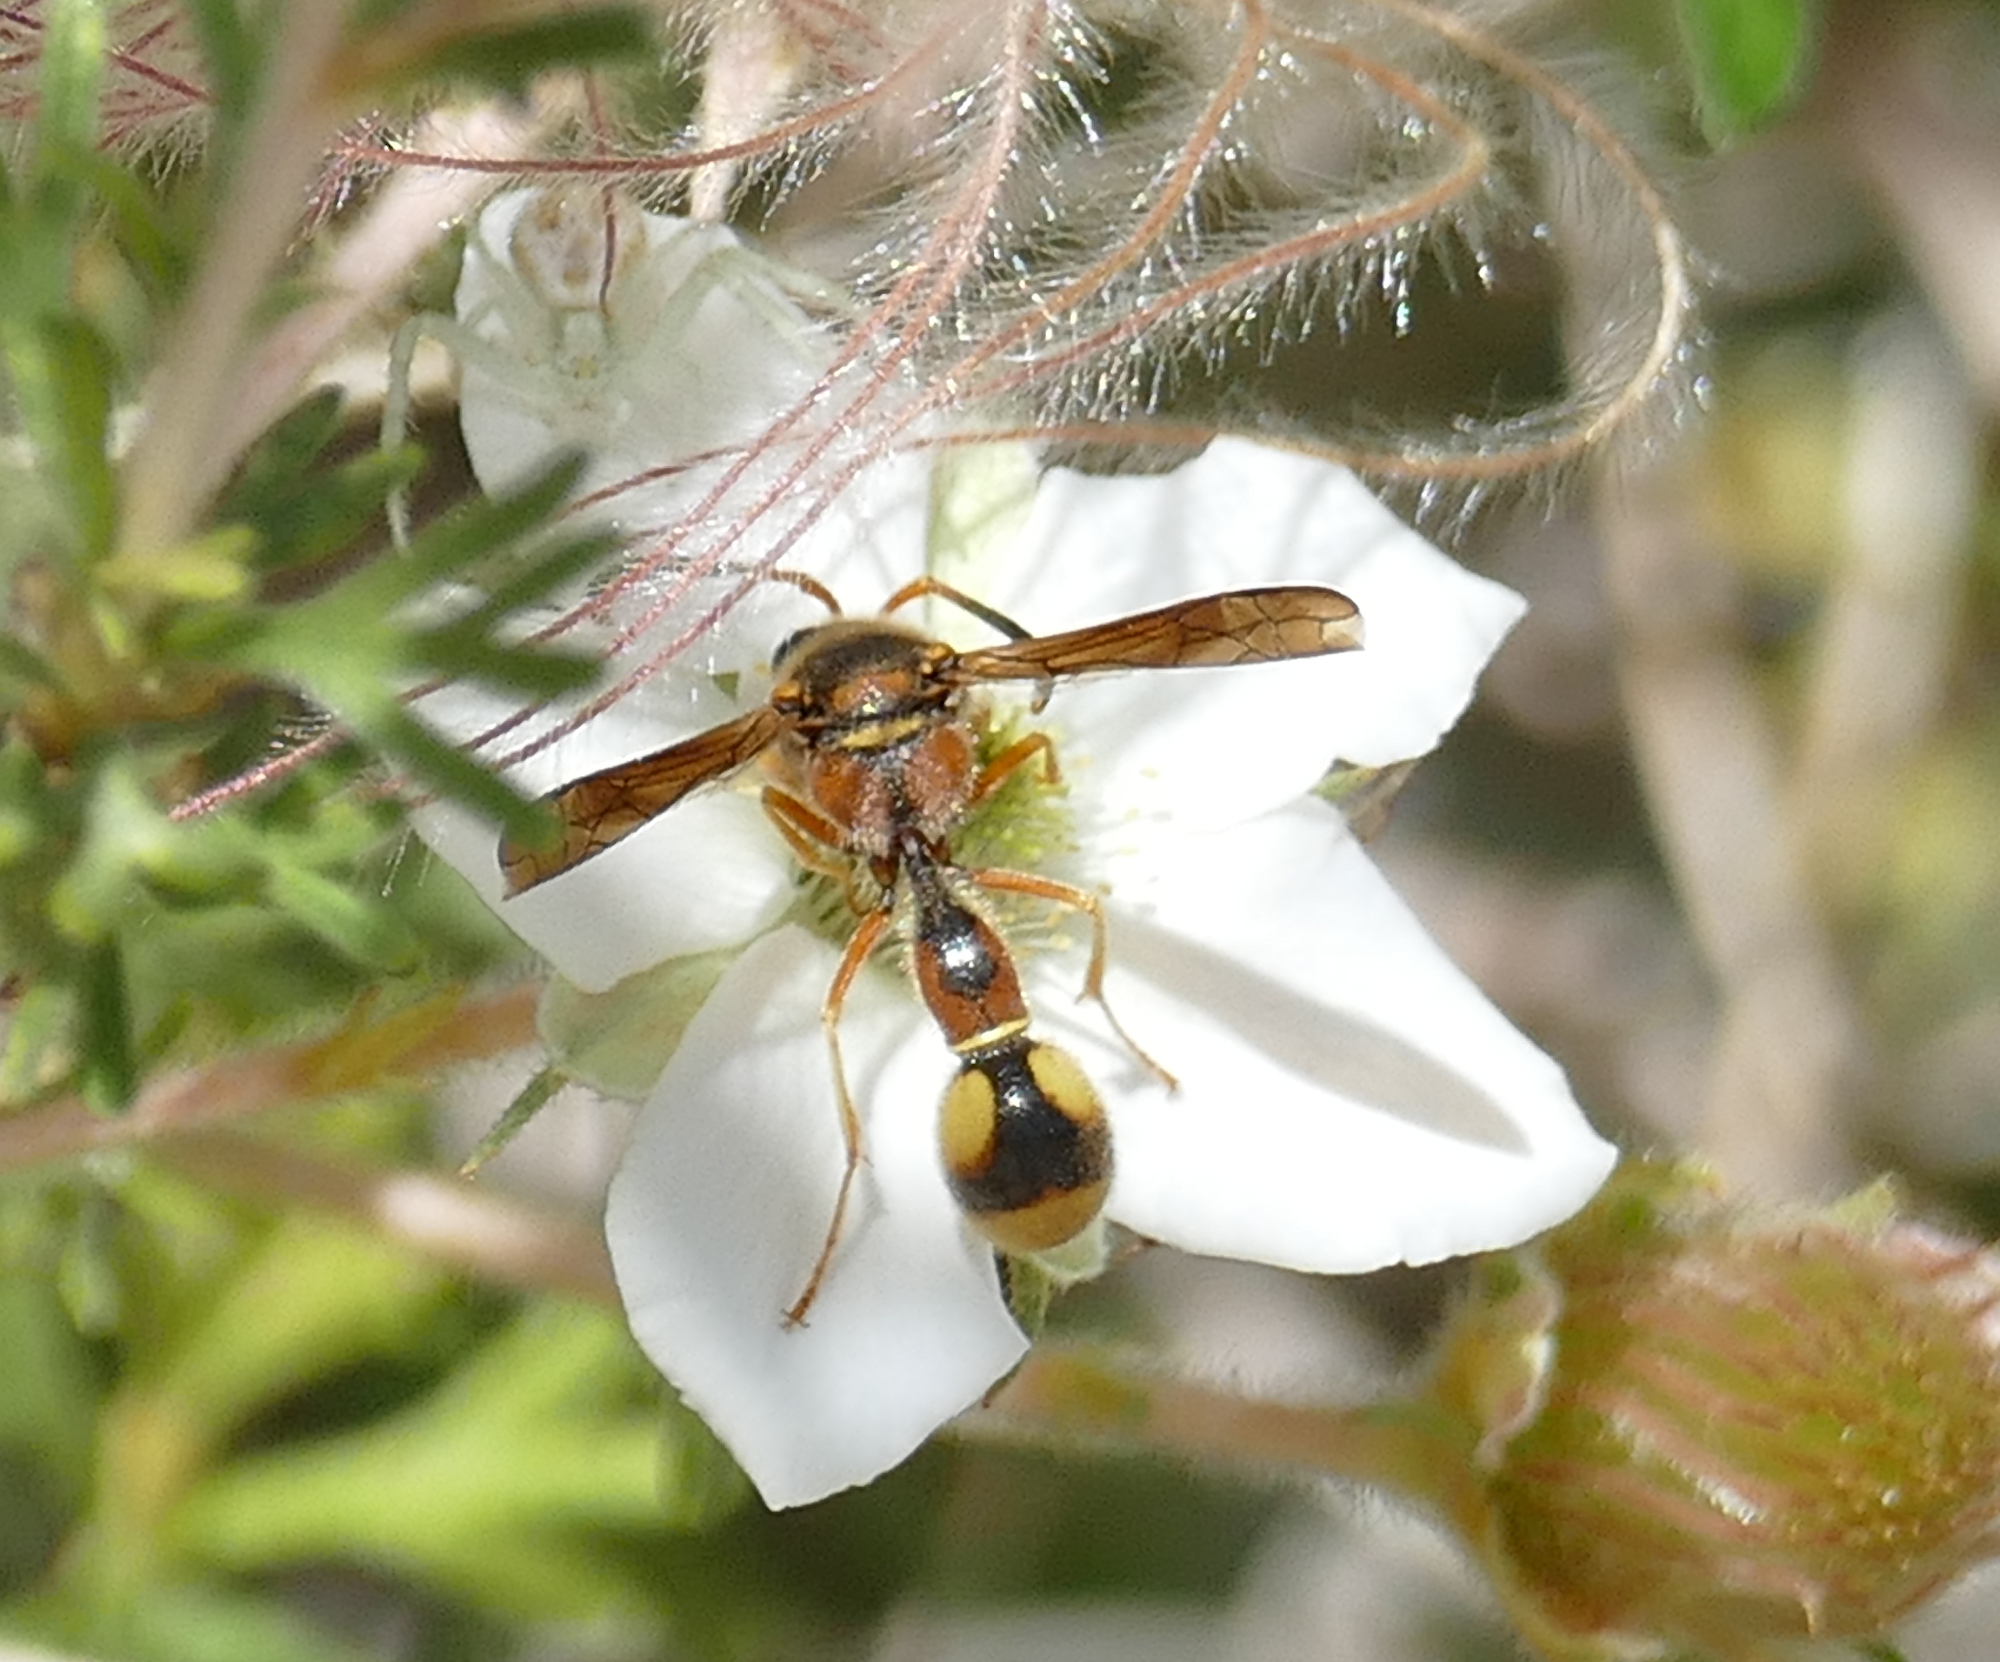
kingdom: Animalia
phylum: Arthropoda
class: Insecta
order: Hymenoptera
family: Vespidae
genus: Eumenes
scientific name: Eumenes bollii
